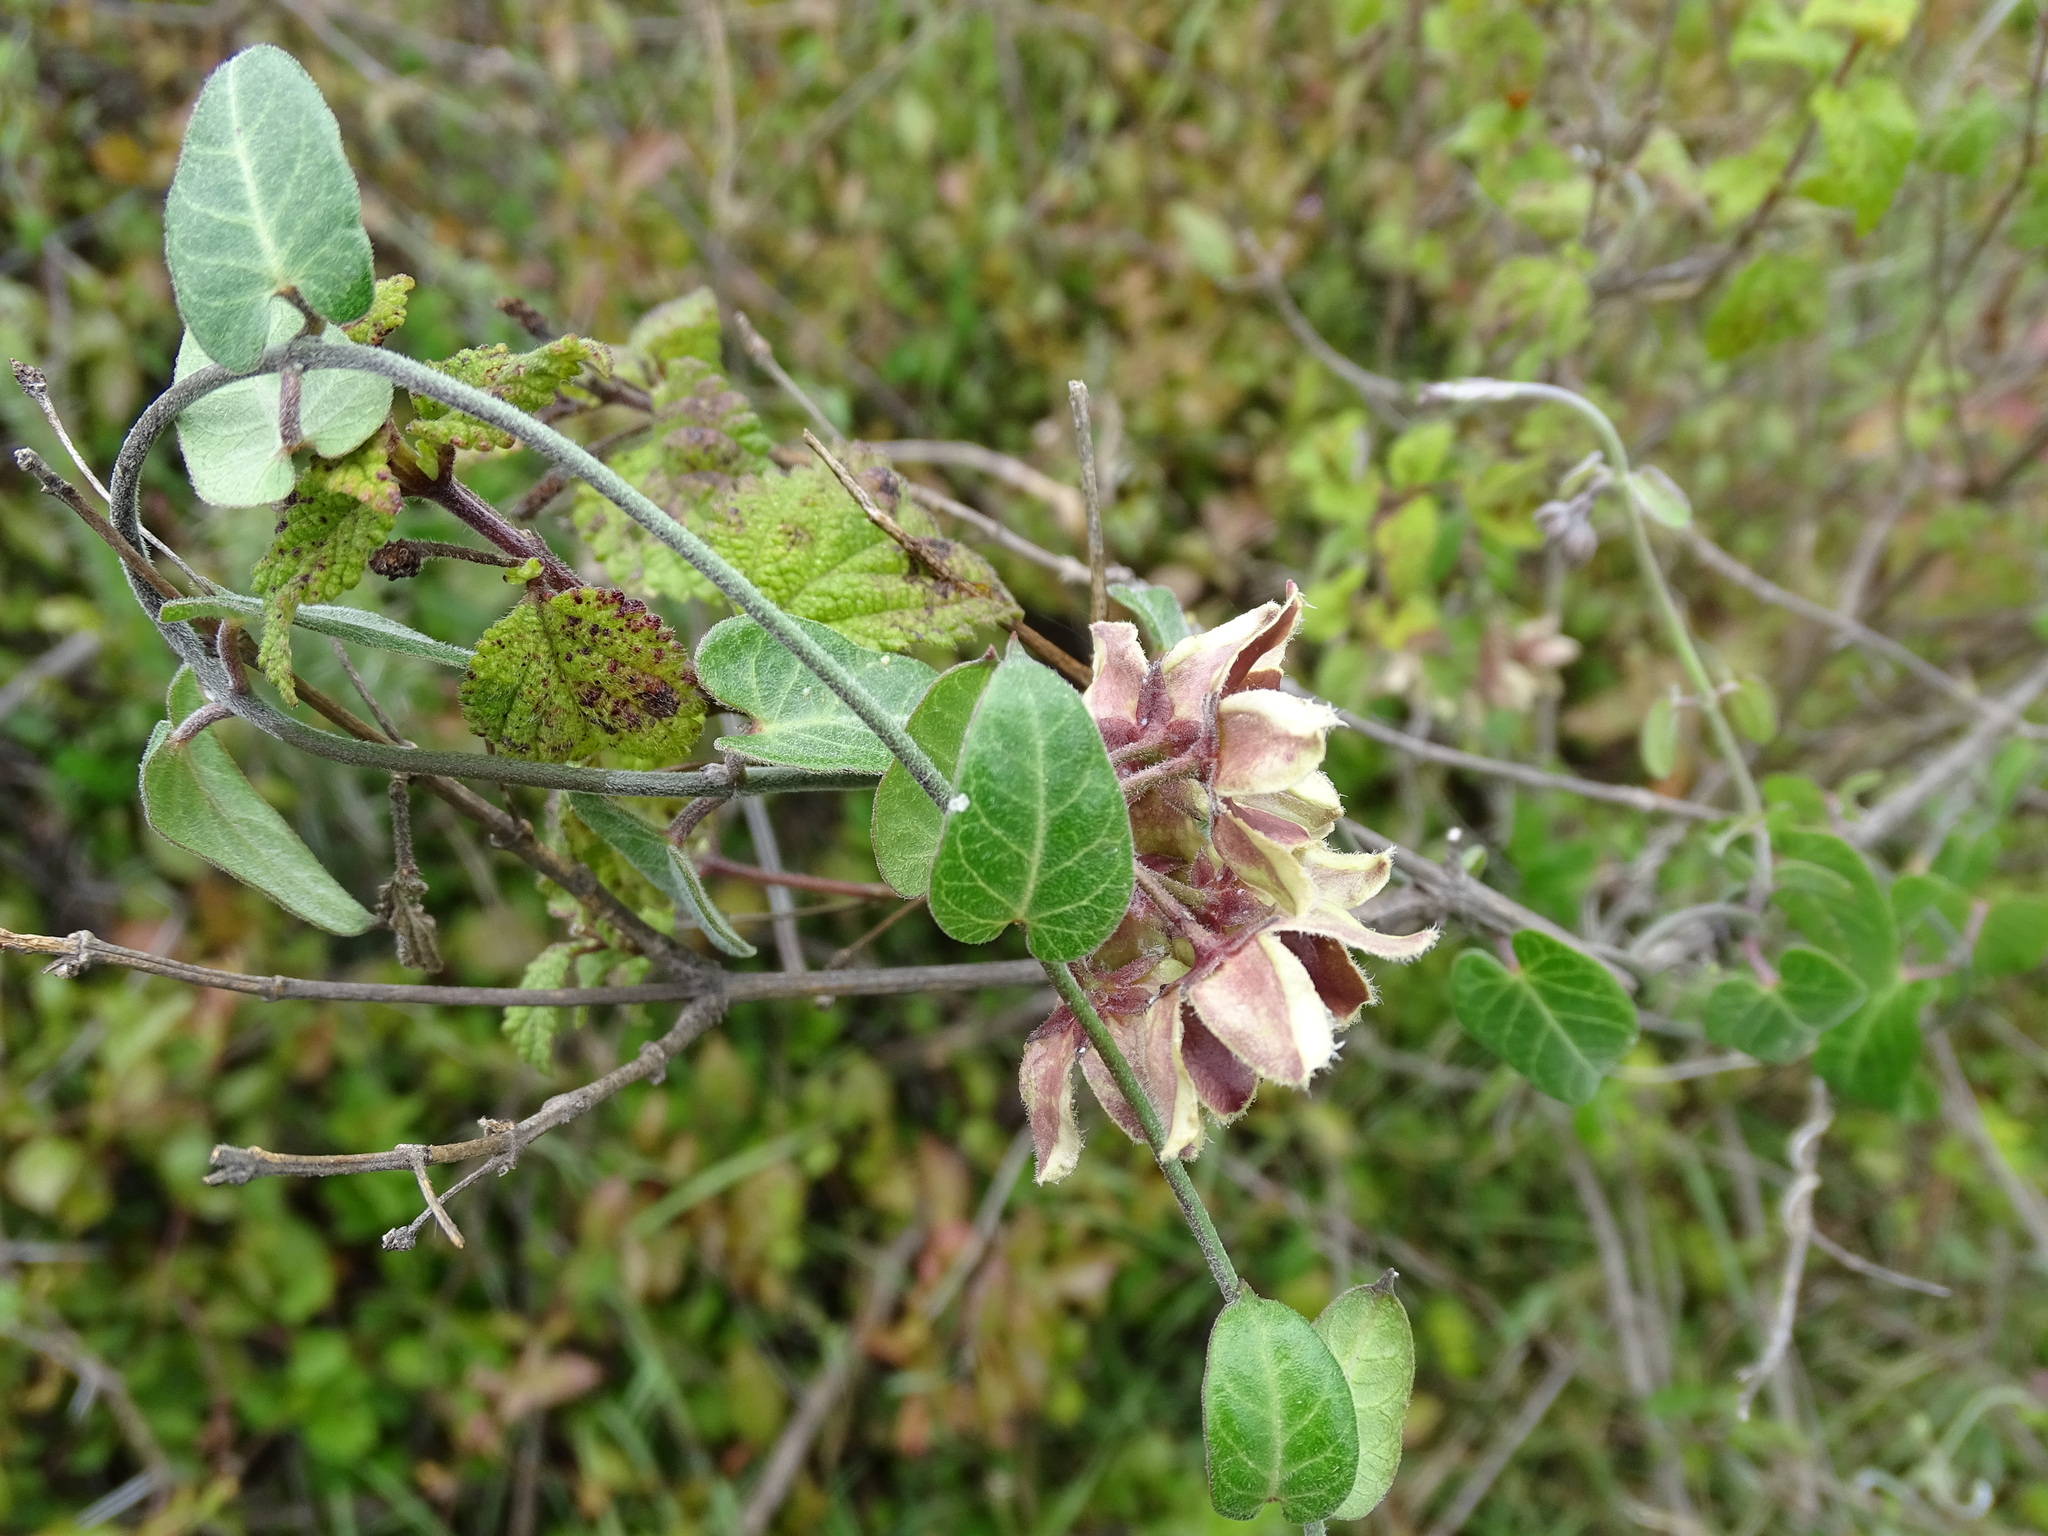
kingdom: Plantae
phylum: Tracheophyta
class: Magnoliopsida
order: Gentianales
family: Apocynaceae
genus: Funastrum
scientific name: Funastrum elegans
